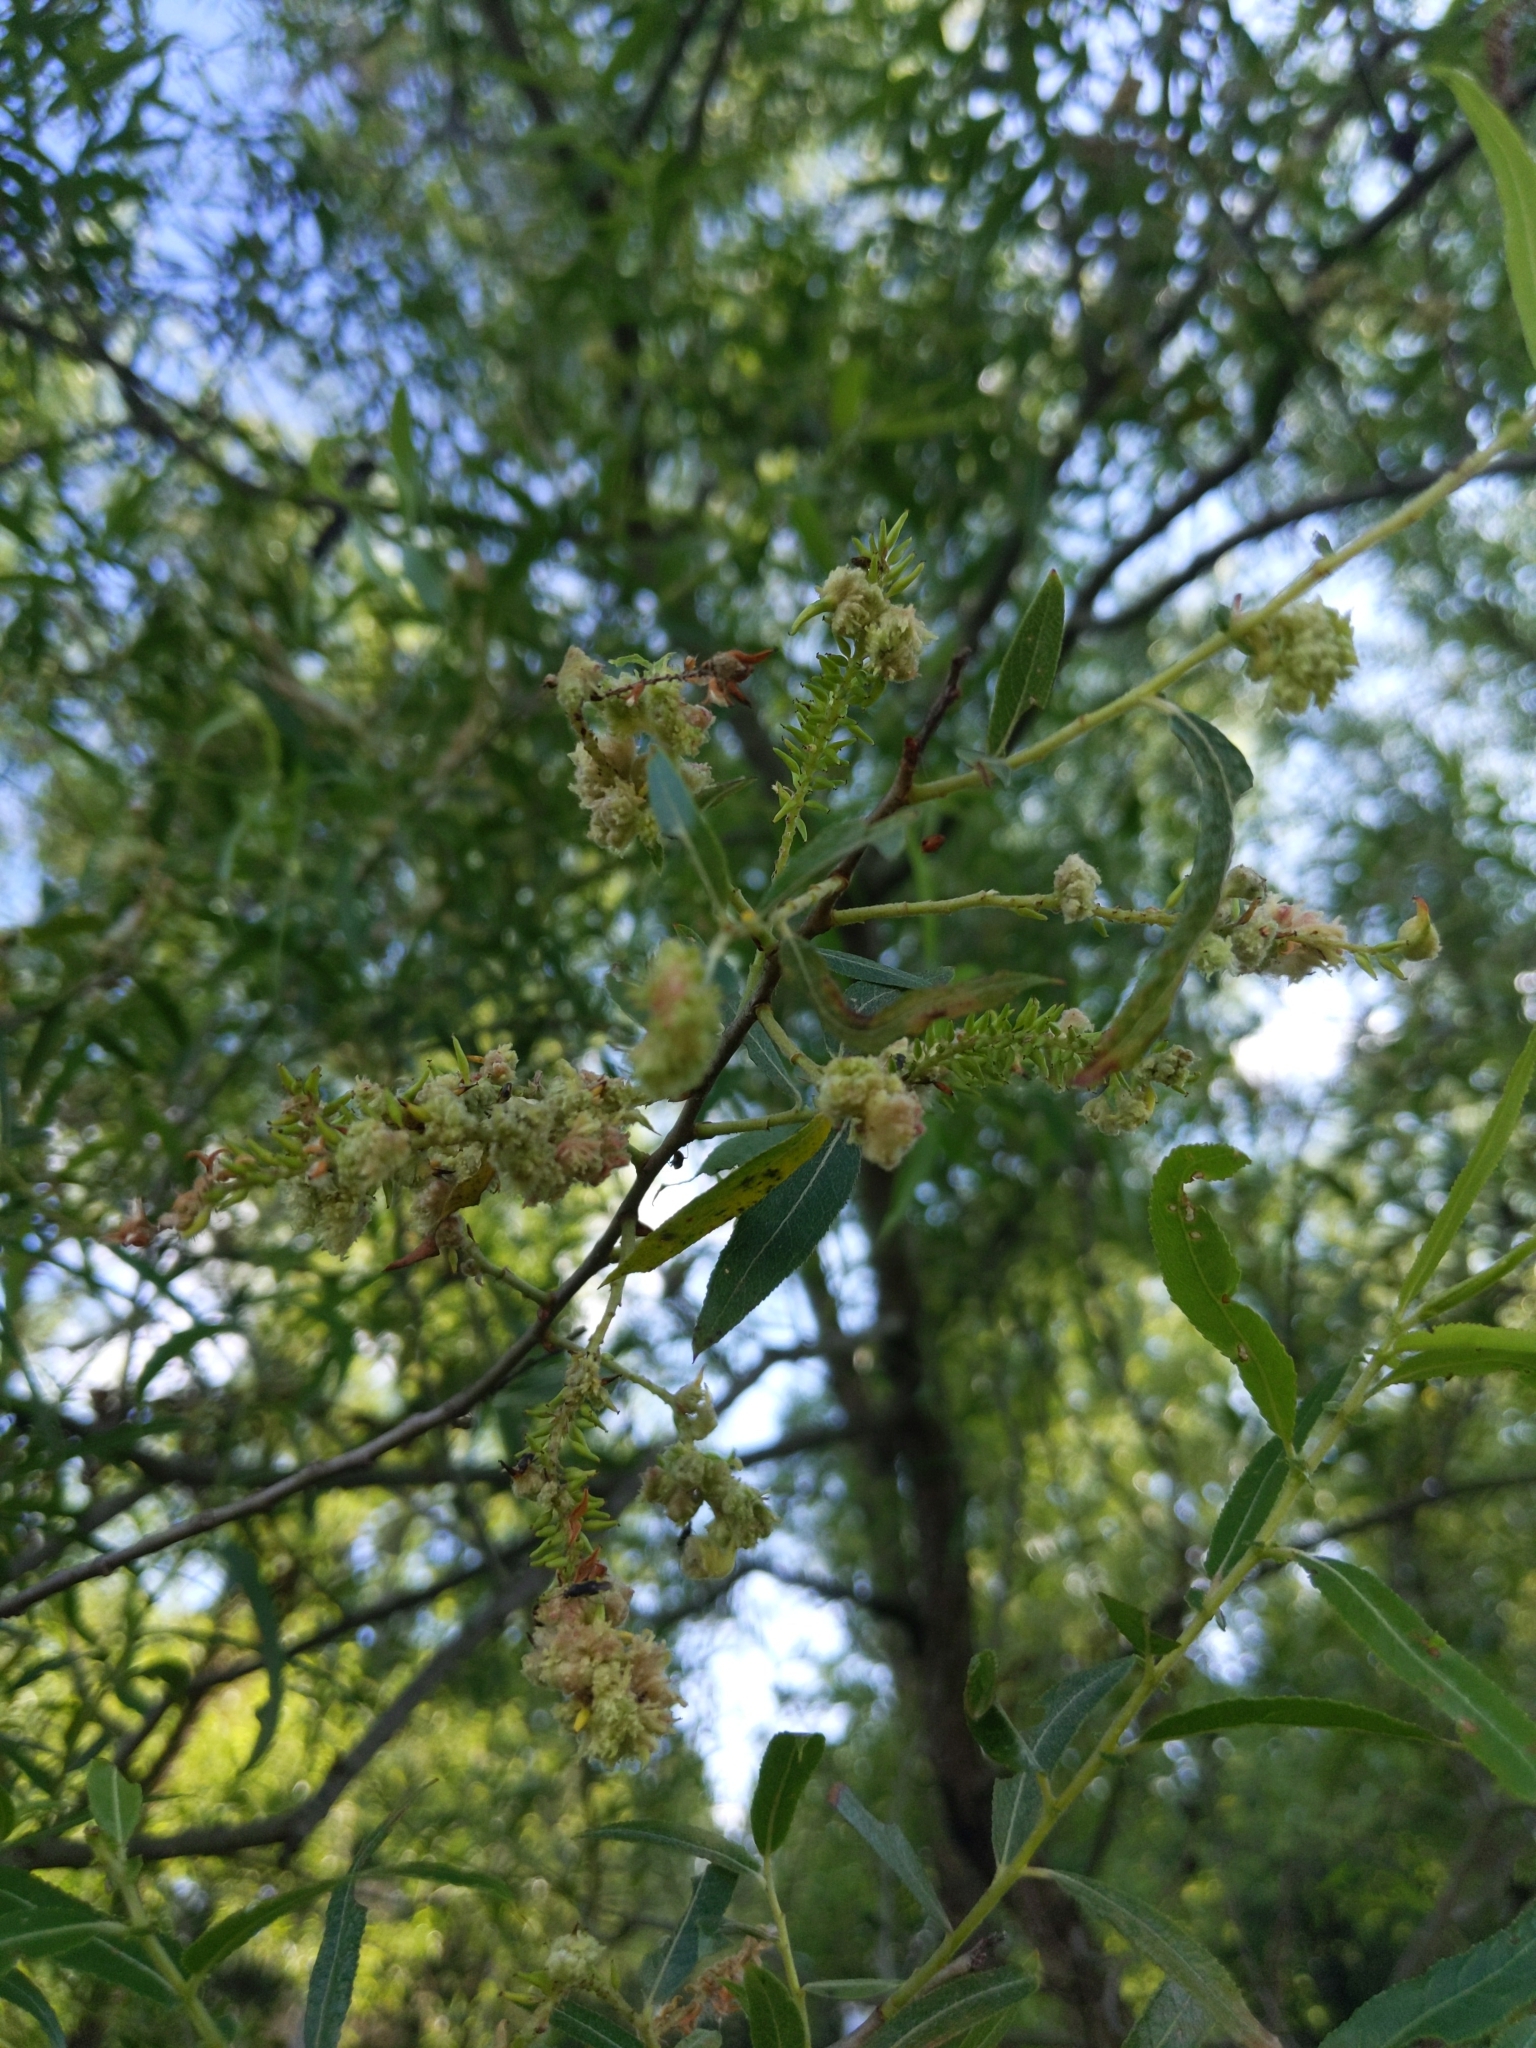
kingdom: Animalia
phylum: Arthropoda
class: Arachnida
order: Trombidiformes
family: Eriophyidae
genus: Aculops
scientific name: Aculops
